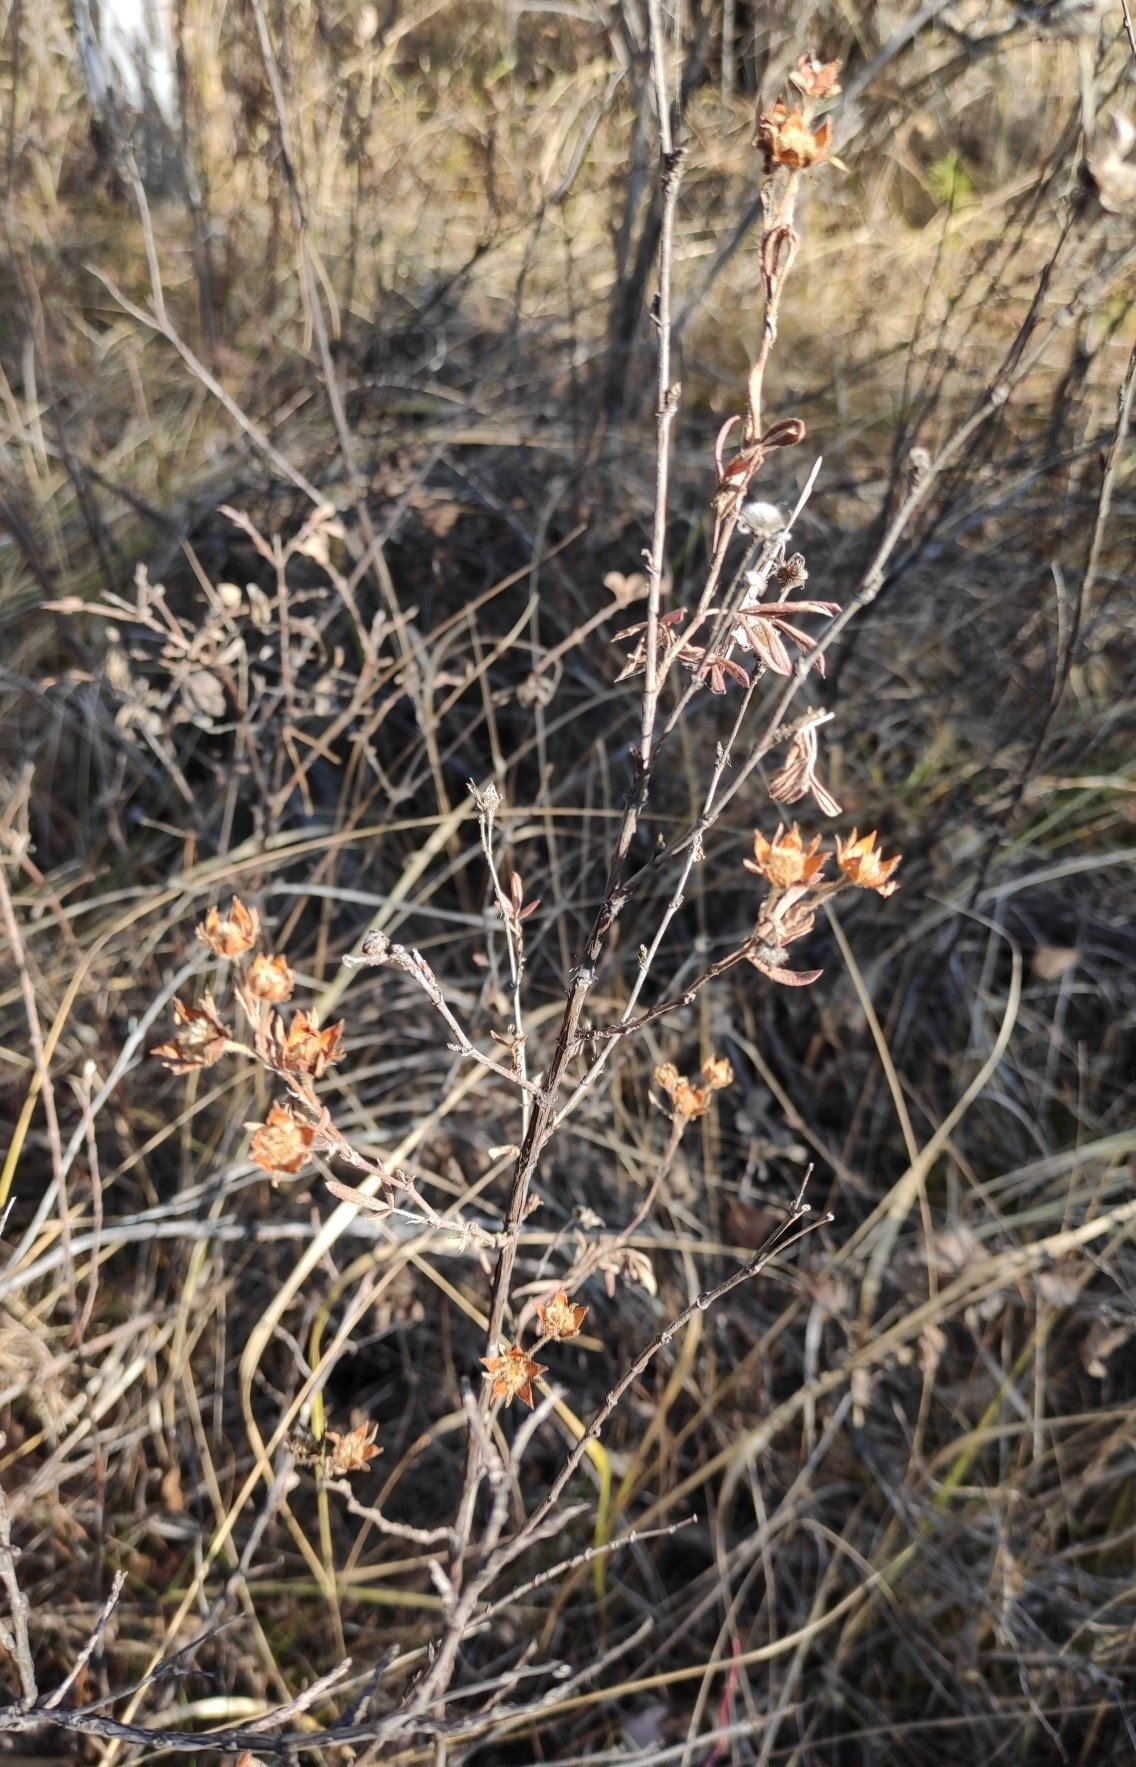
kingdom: Plantae
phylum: Tracheophyta
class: Magnoliopsida
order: Rosales
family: Rosaceae
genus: Dasiphora
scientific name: Dasiphora fruticosa
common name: Shrubby cinquefoil
